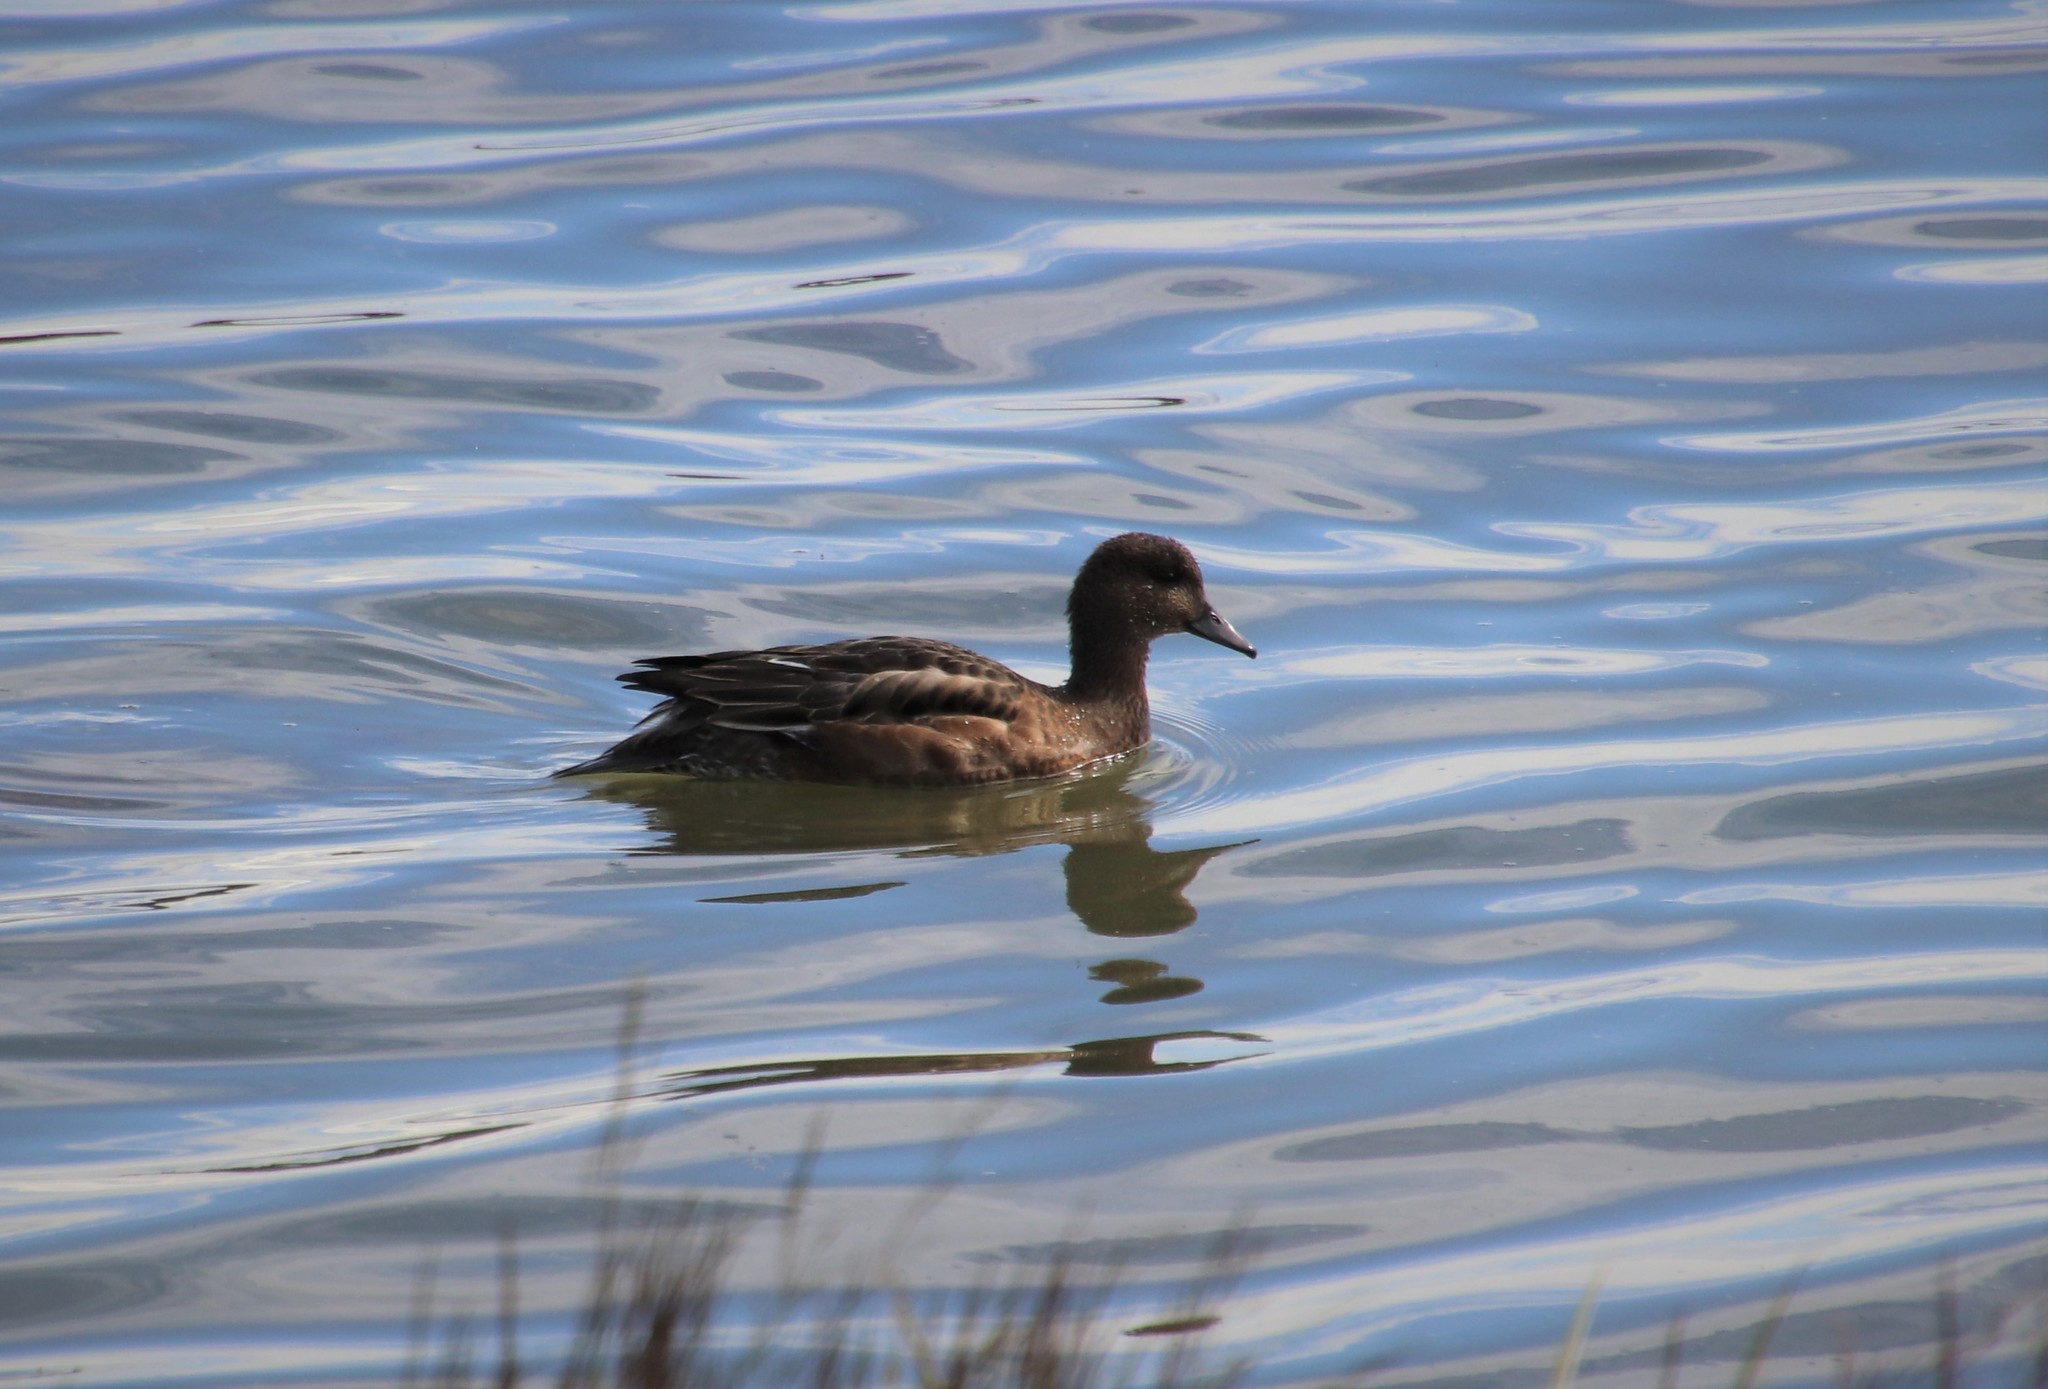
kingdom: Animalia
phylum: Chordata
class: Aves
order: Anseriformes
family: Anatidae
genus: Mareca
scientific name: Mareca penelope
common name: Eurasian wigeon
